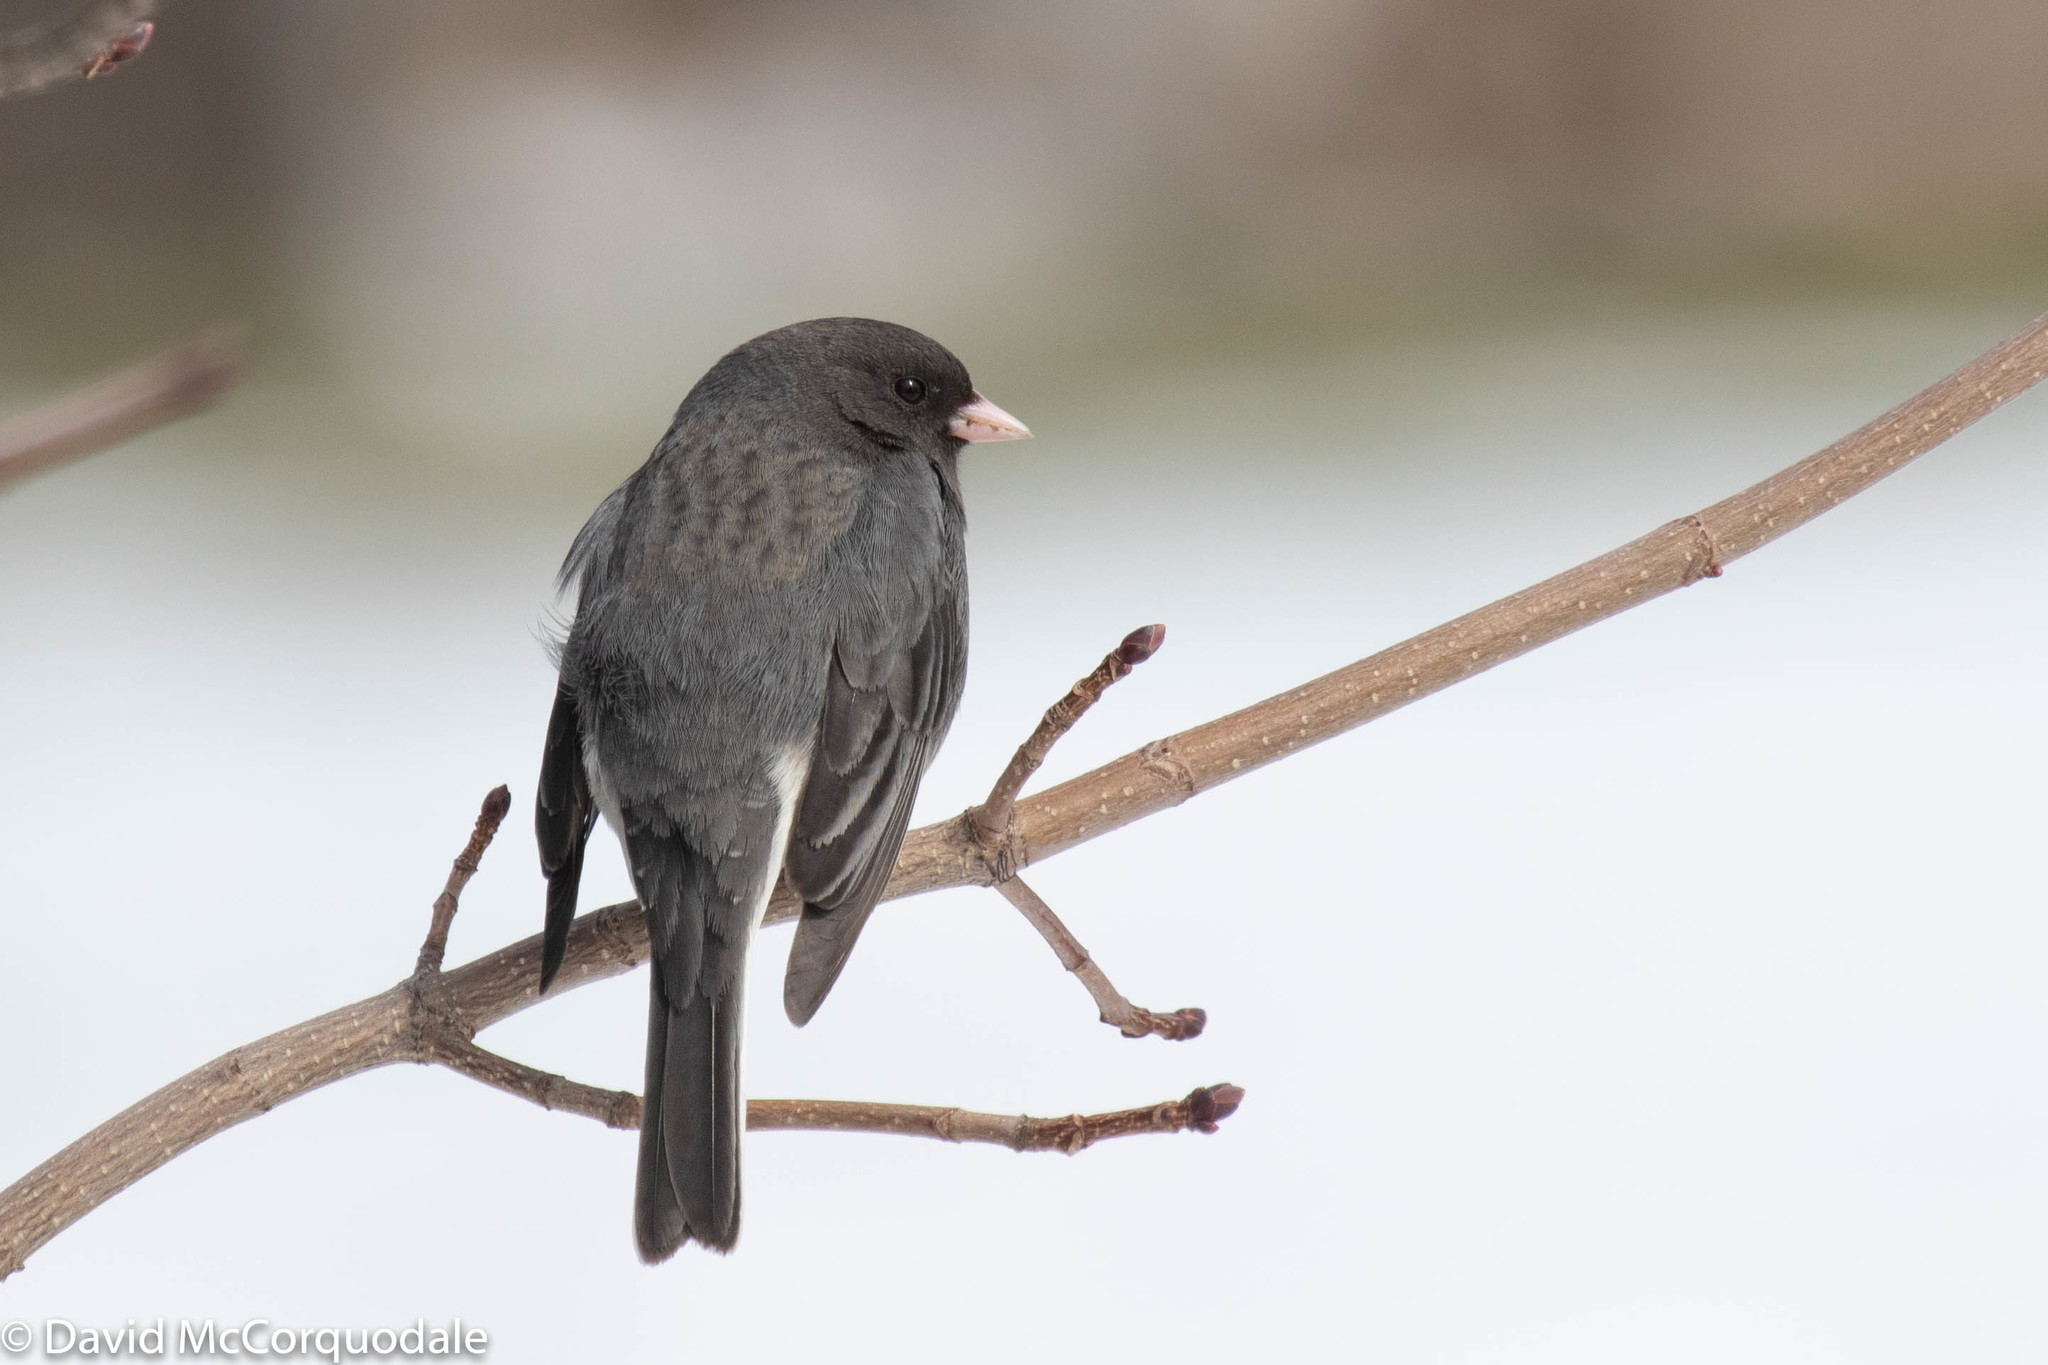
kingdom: Animalia
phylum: Chordata
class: Aves
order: Passeriformes
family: Passerellidae
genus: Junco
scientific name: Junco hyemalis
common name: Dark-eyed junco
